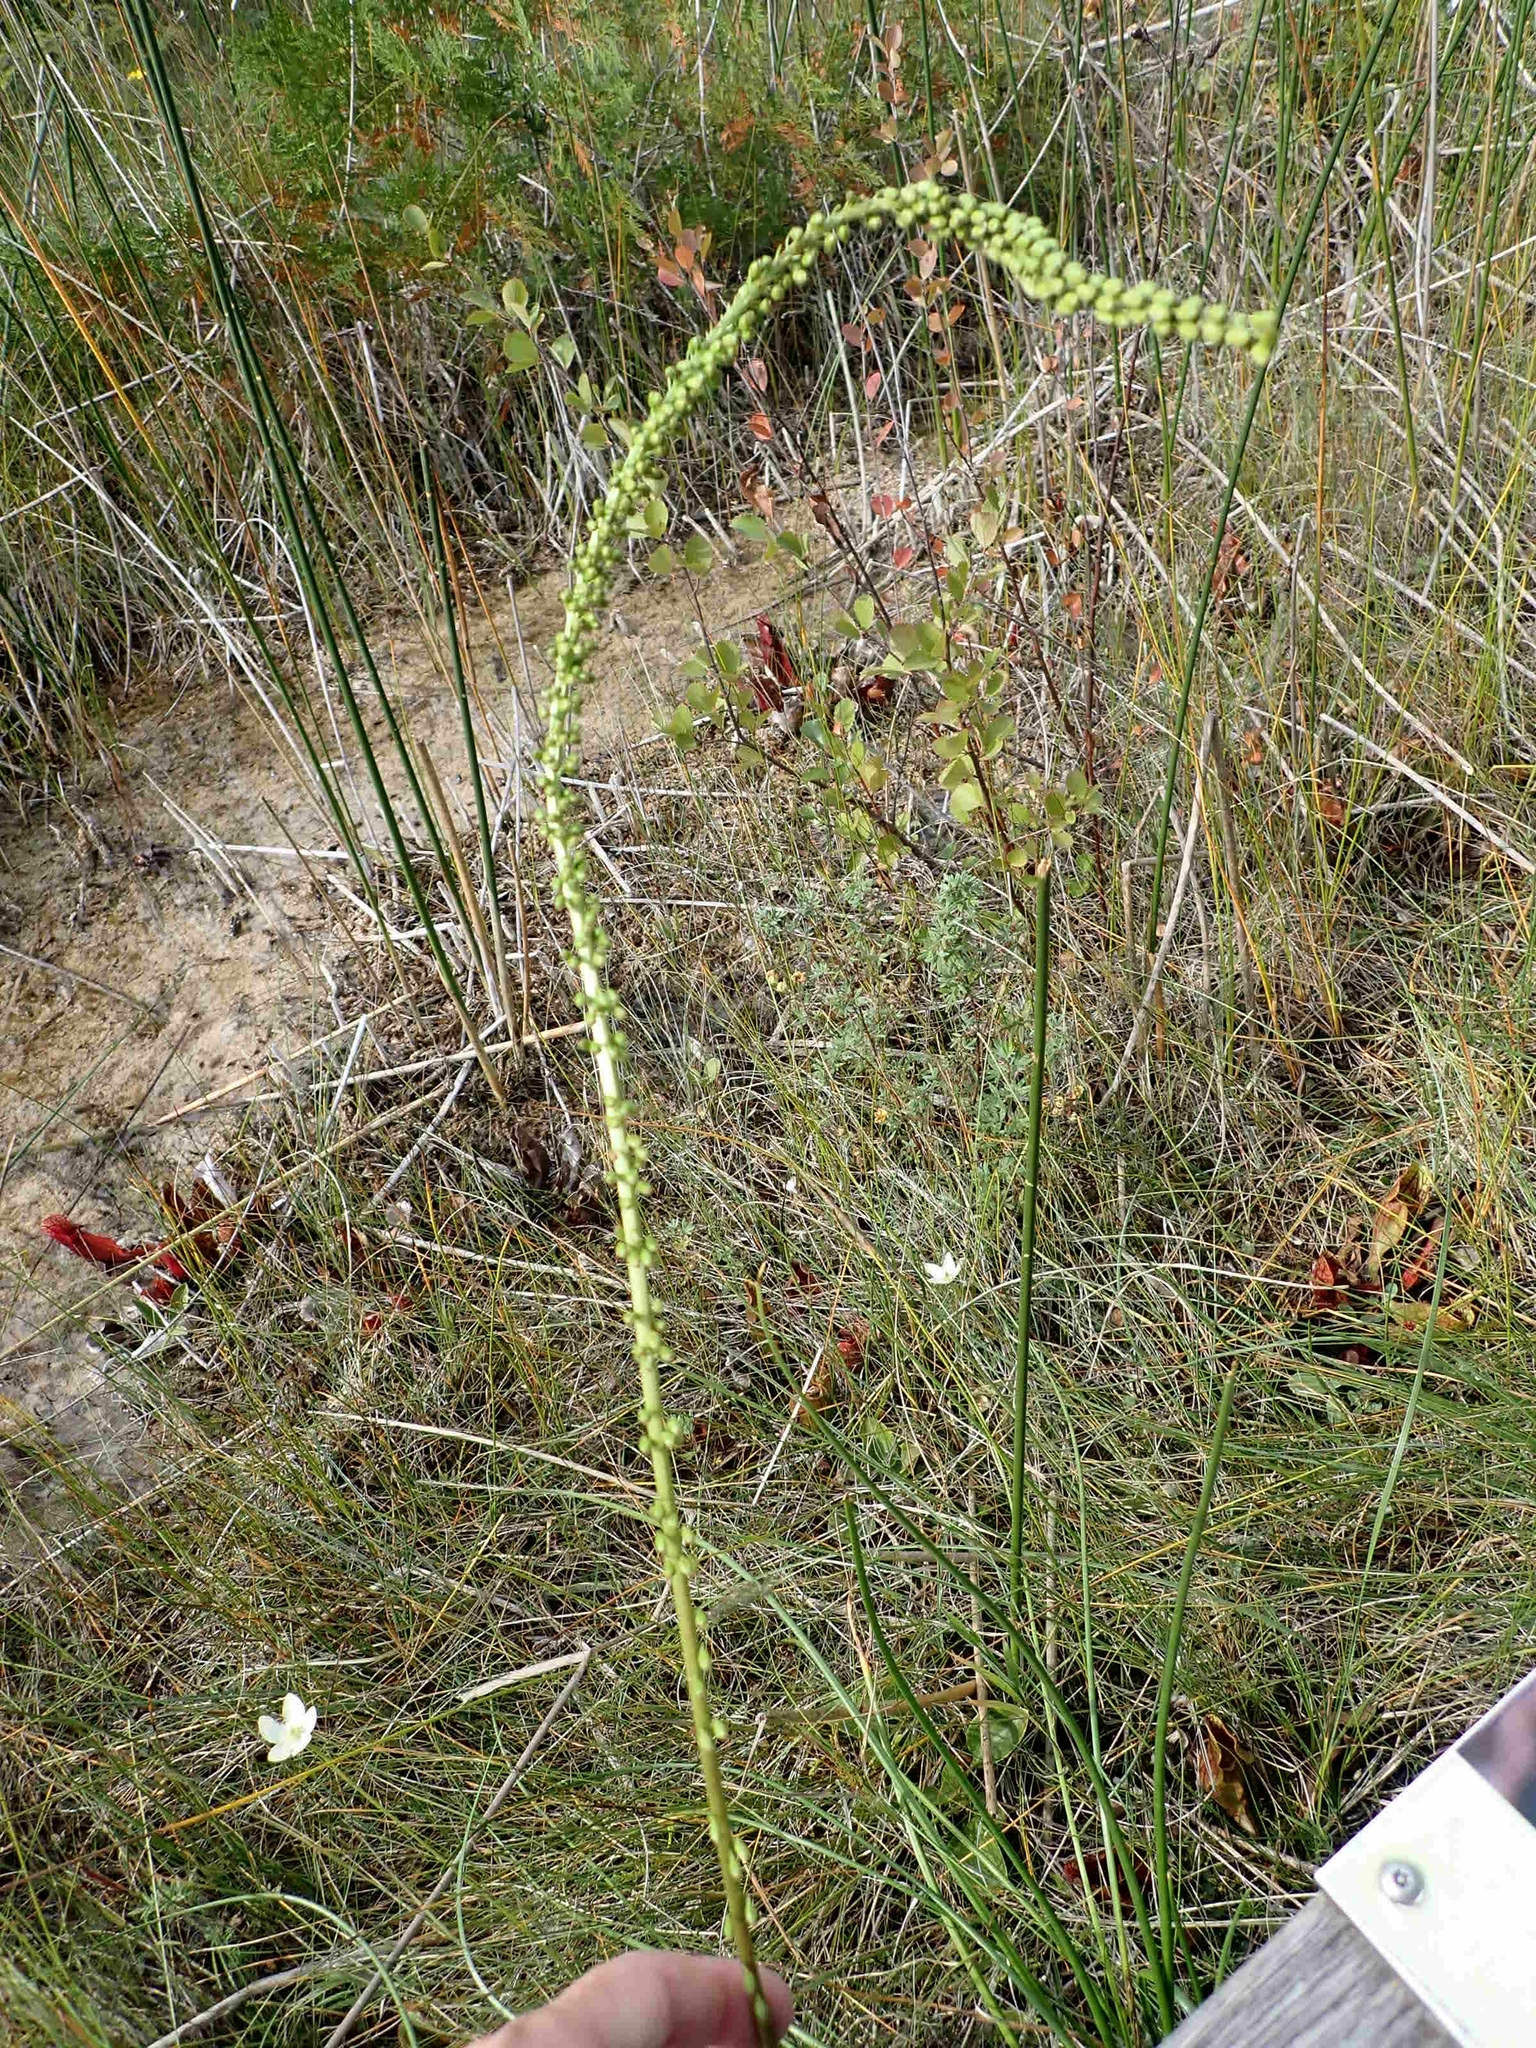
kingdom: Plantae
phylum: Tracheophyta
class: Liliopsida
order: Alismatales
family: Juncaginaceae
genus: Triglochin
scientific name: Triglochin maritima
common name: Sea arrowgrass
